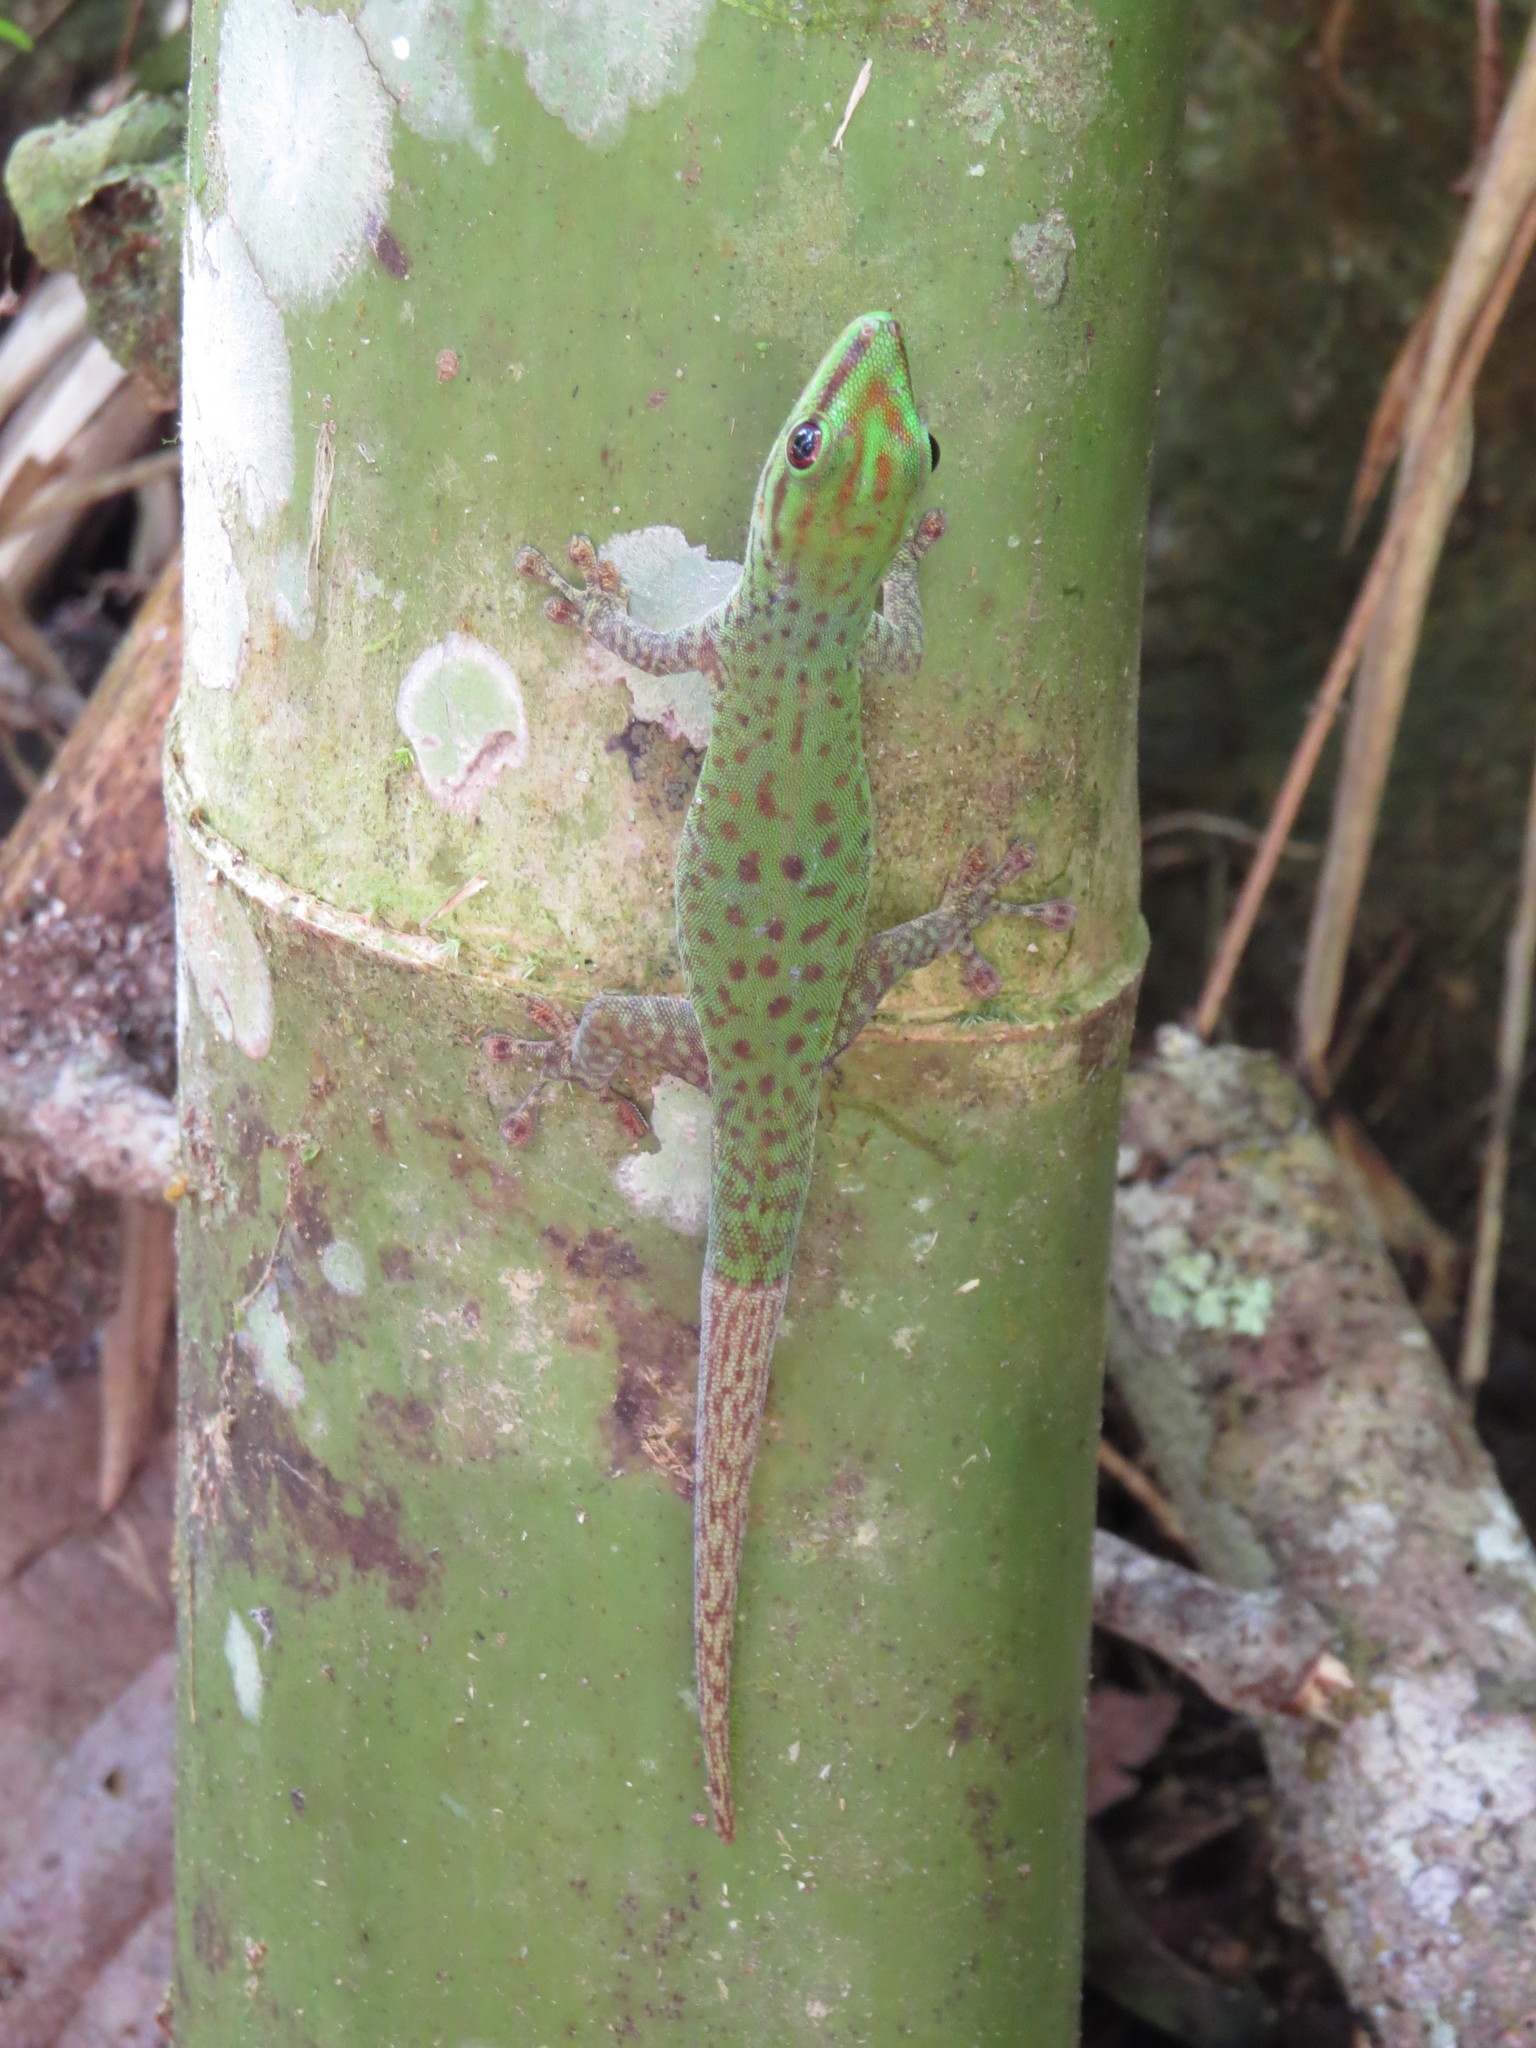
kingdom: Animalia
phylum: Chordata
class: Squamata
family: Gekkonidae
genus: Phelsuma
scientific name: Phelsuma guttata
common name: Speckled day  gecko
